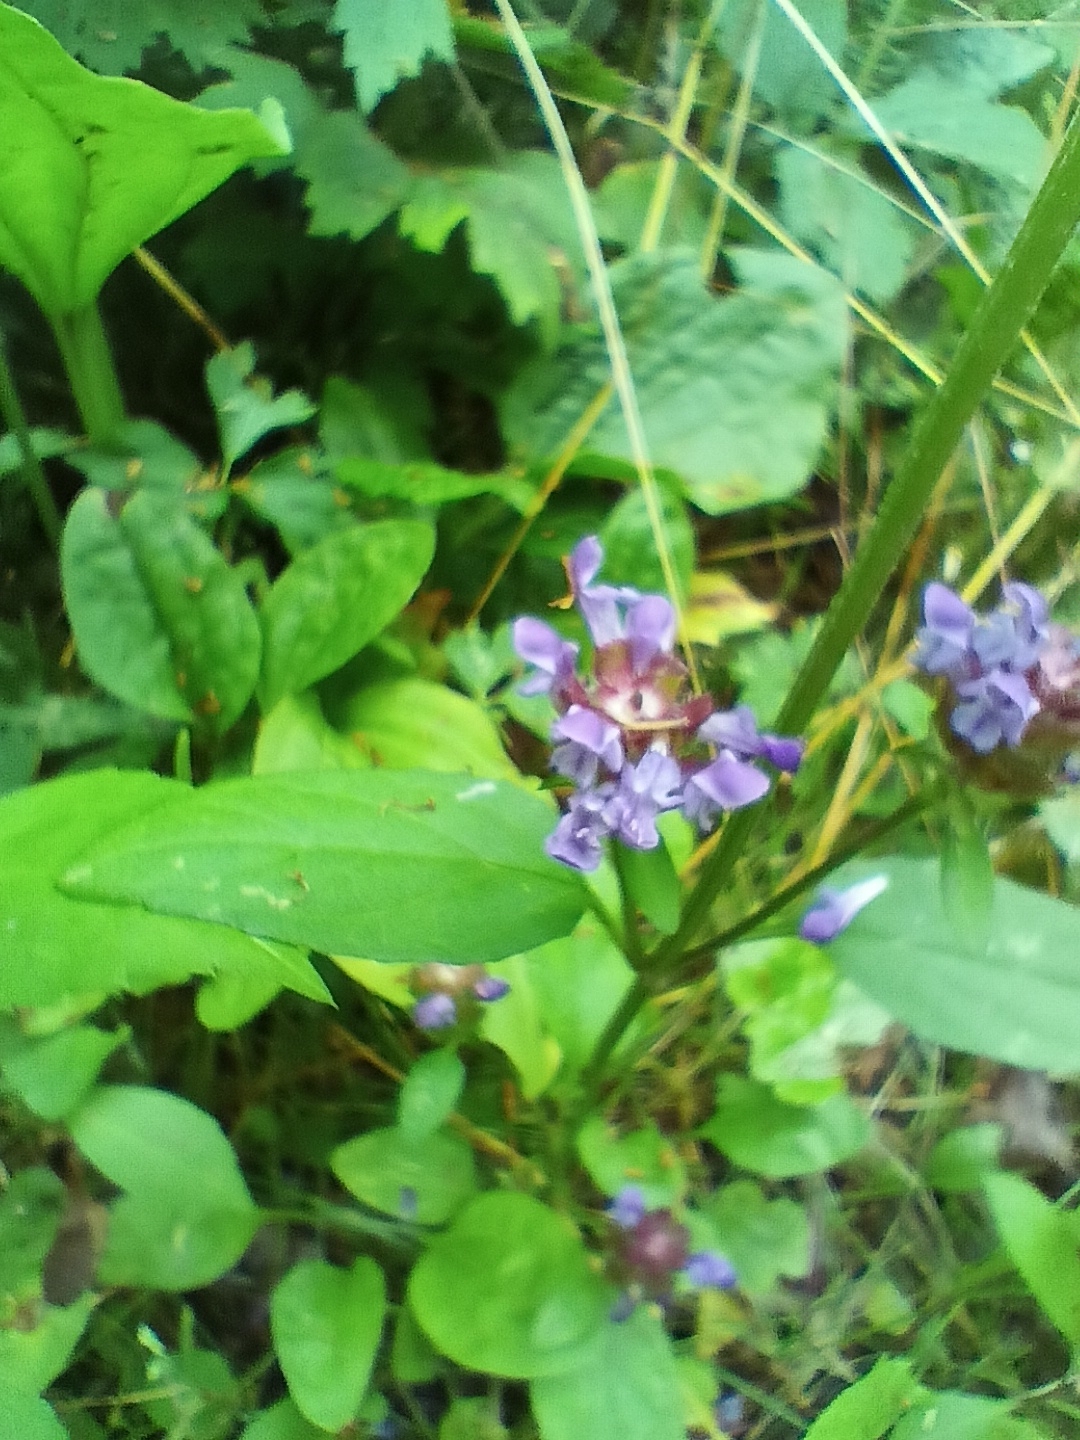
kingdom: Plantae
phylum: Tracheophyta
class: Magnoliopsida
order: Lamiales
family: Lamiaceae
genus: Prunella
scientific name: Prunella vulgaris
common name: Heal-all
